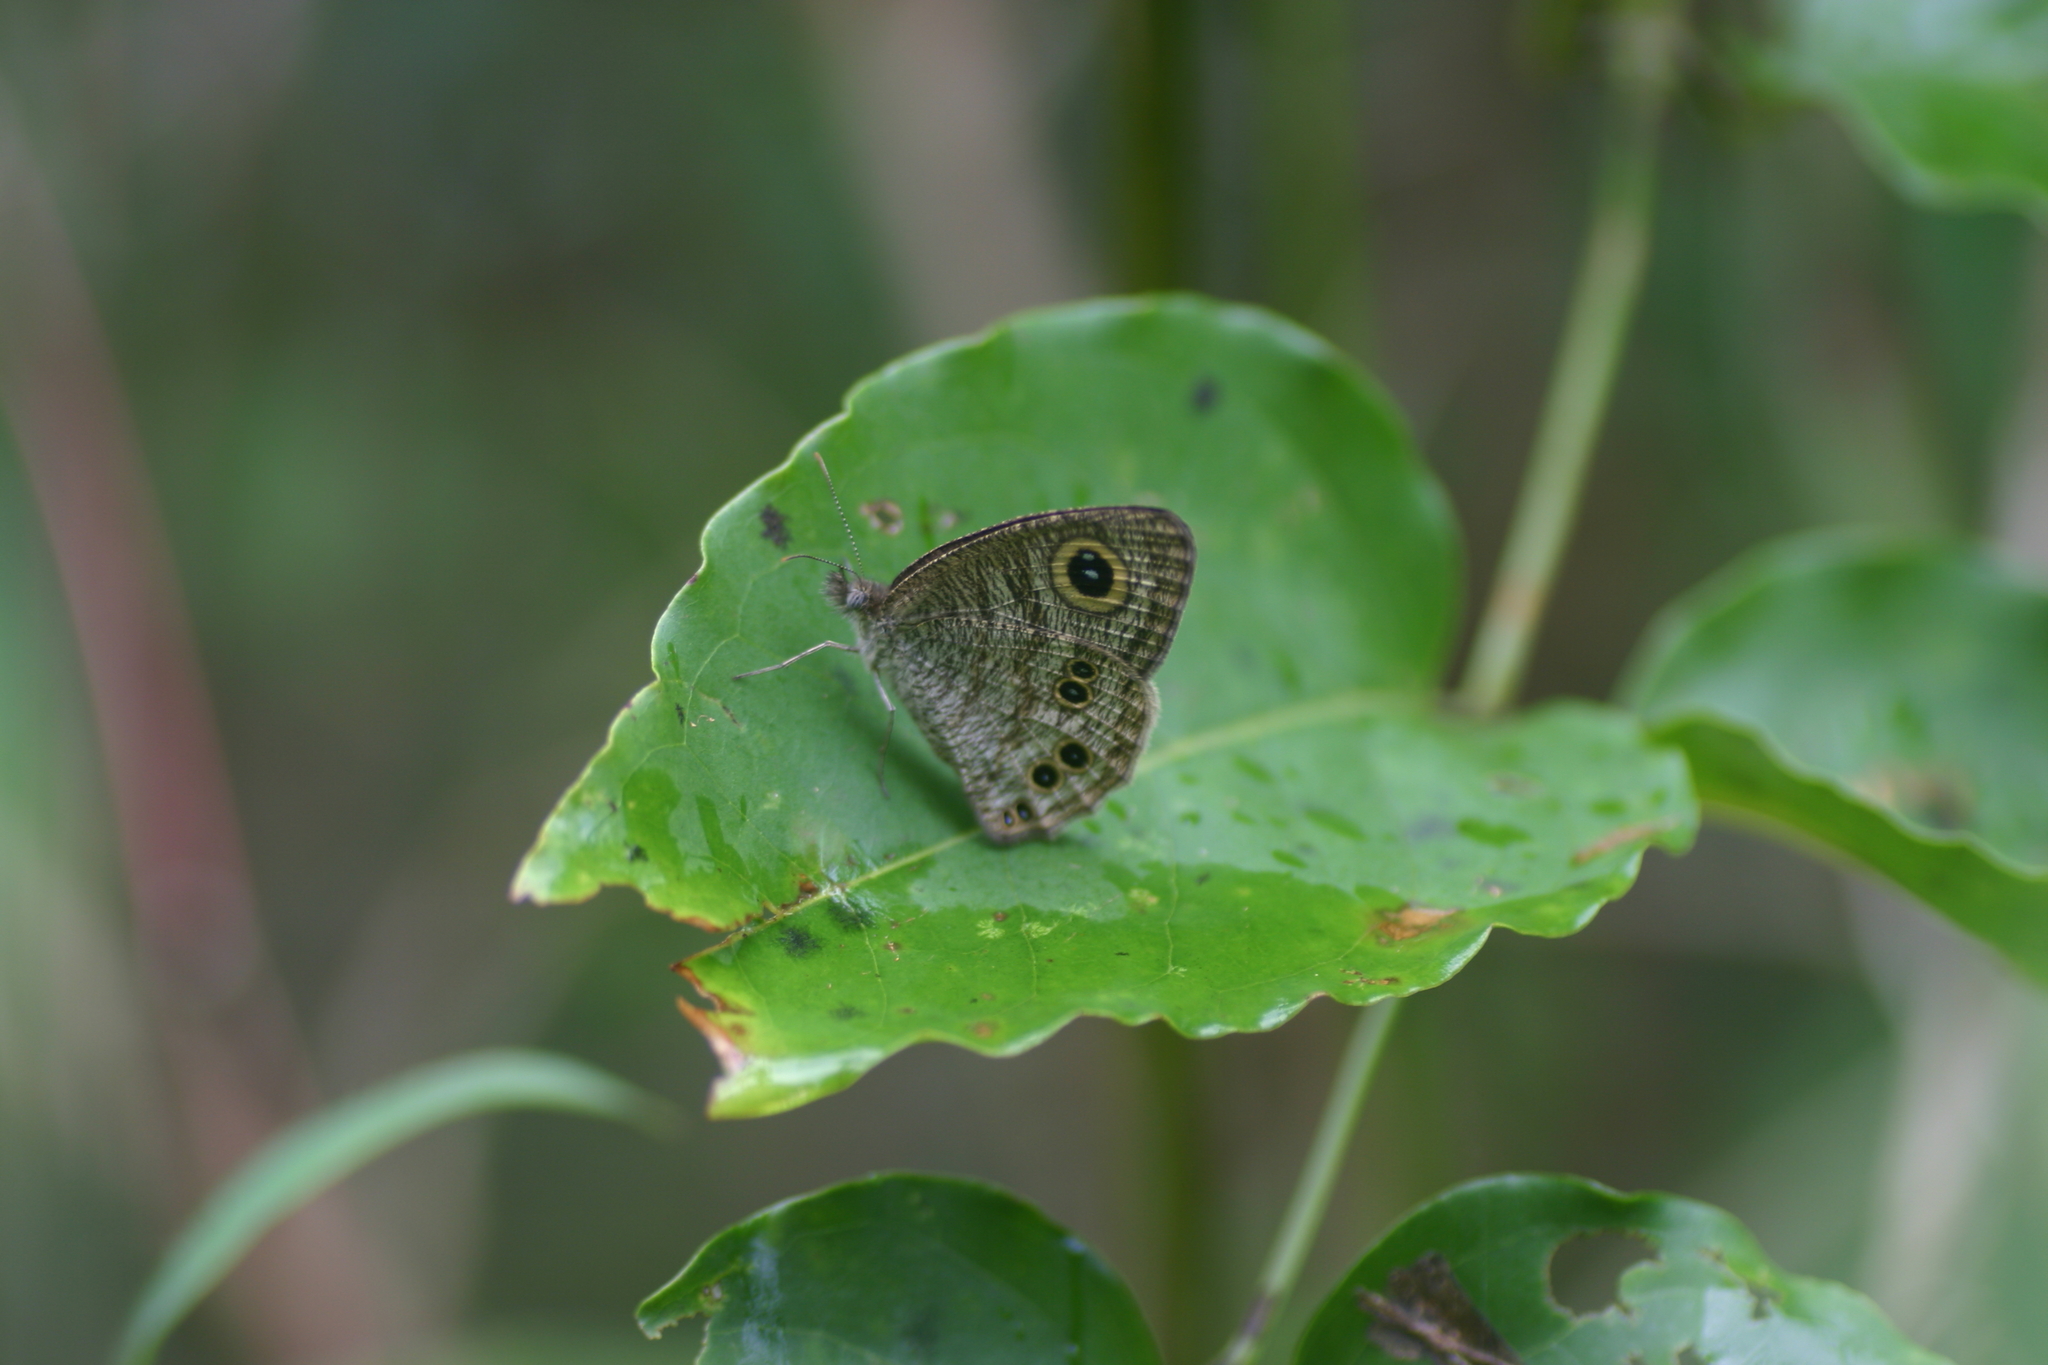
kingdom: Animalia
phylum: Arthropoda
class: Insecta
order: Lepidoptera
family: Nymphalidae
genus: Ypthima
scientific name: Ypthima baldus
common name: Common five-ring
